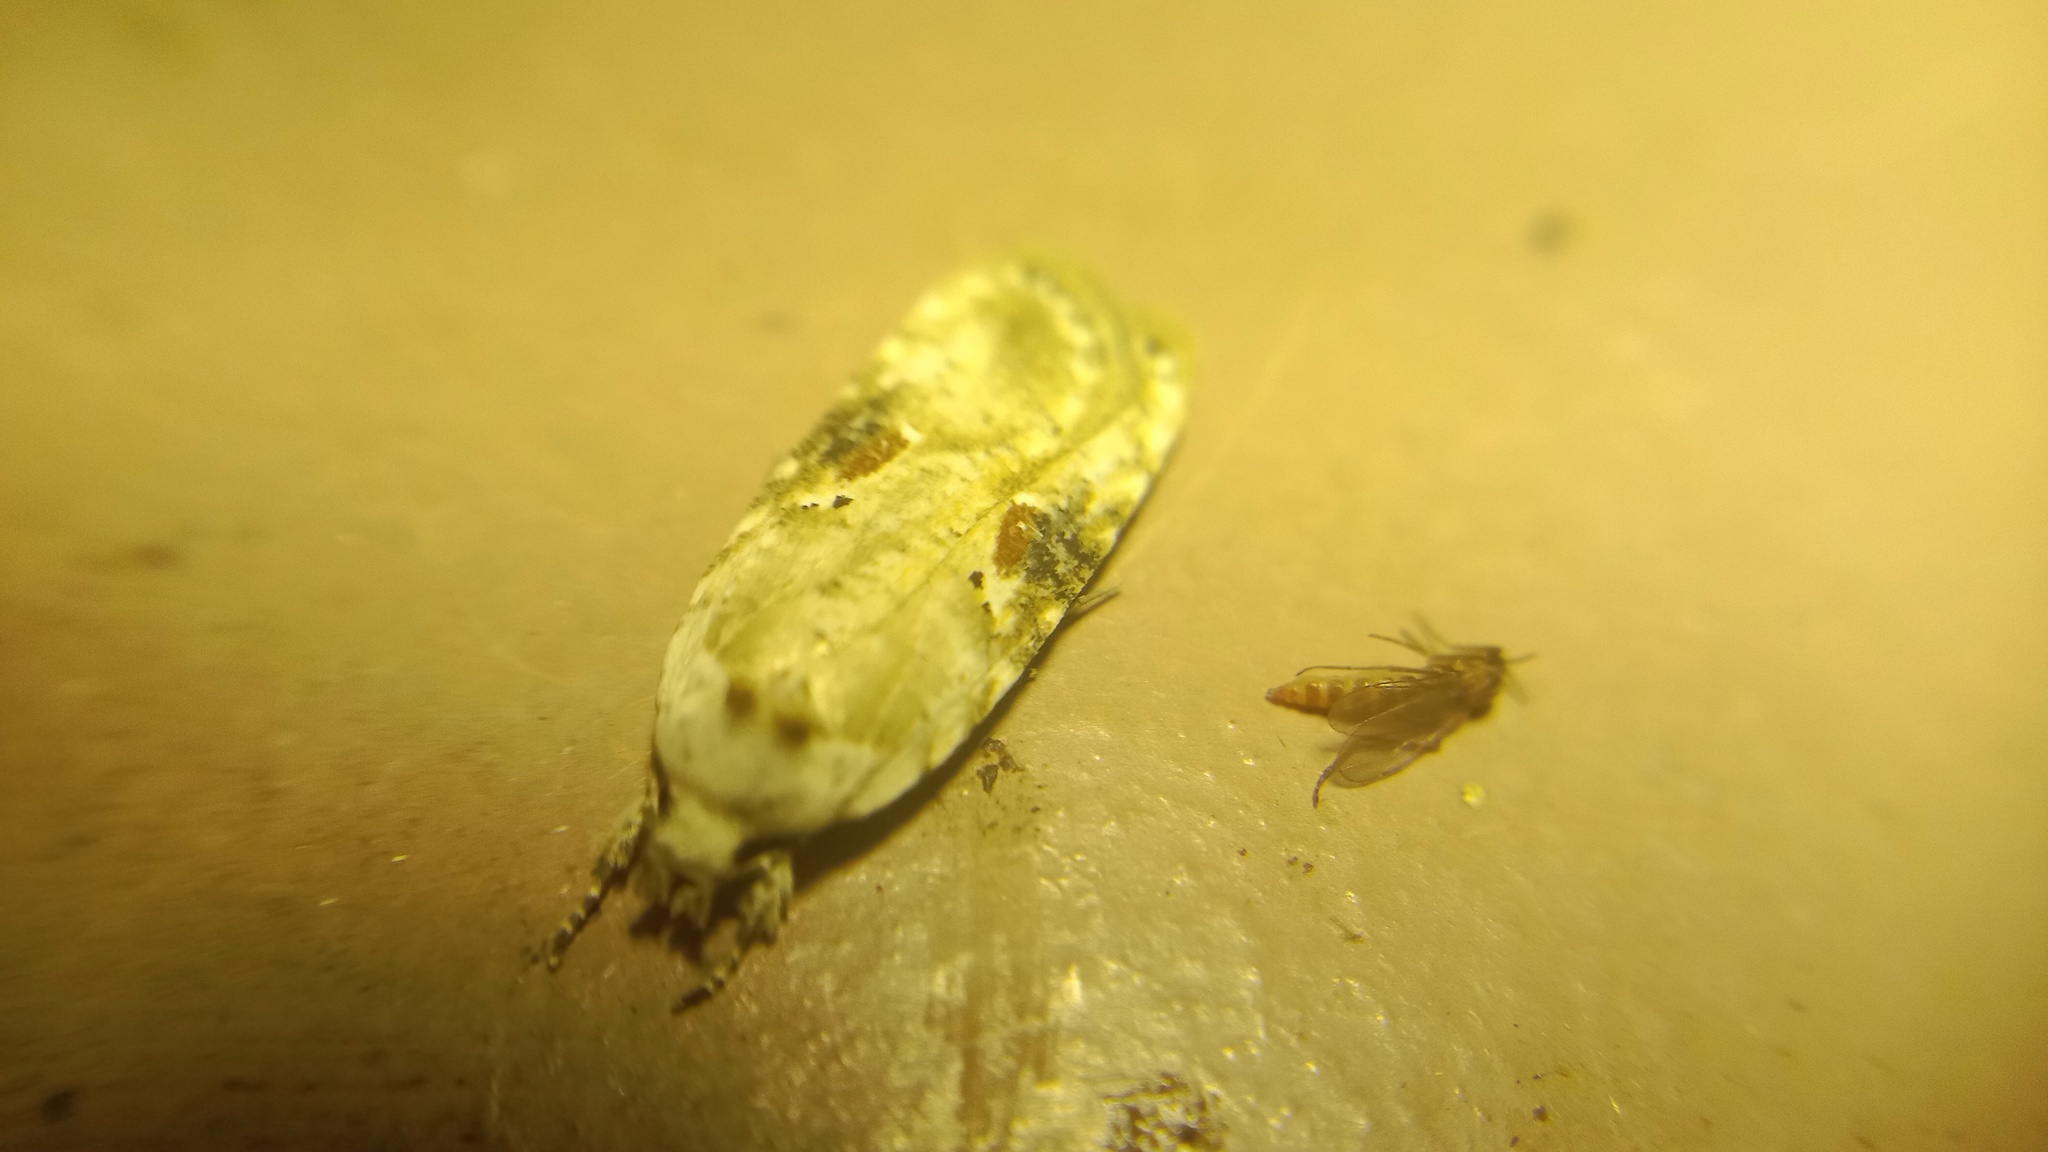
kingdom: Animalia
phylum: Arthropoda
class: Insecta
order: Lepidoptera
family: Depressariidae
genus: Agonopterix
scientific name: Agonopterix alstroemeriana
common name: Moth
